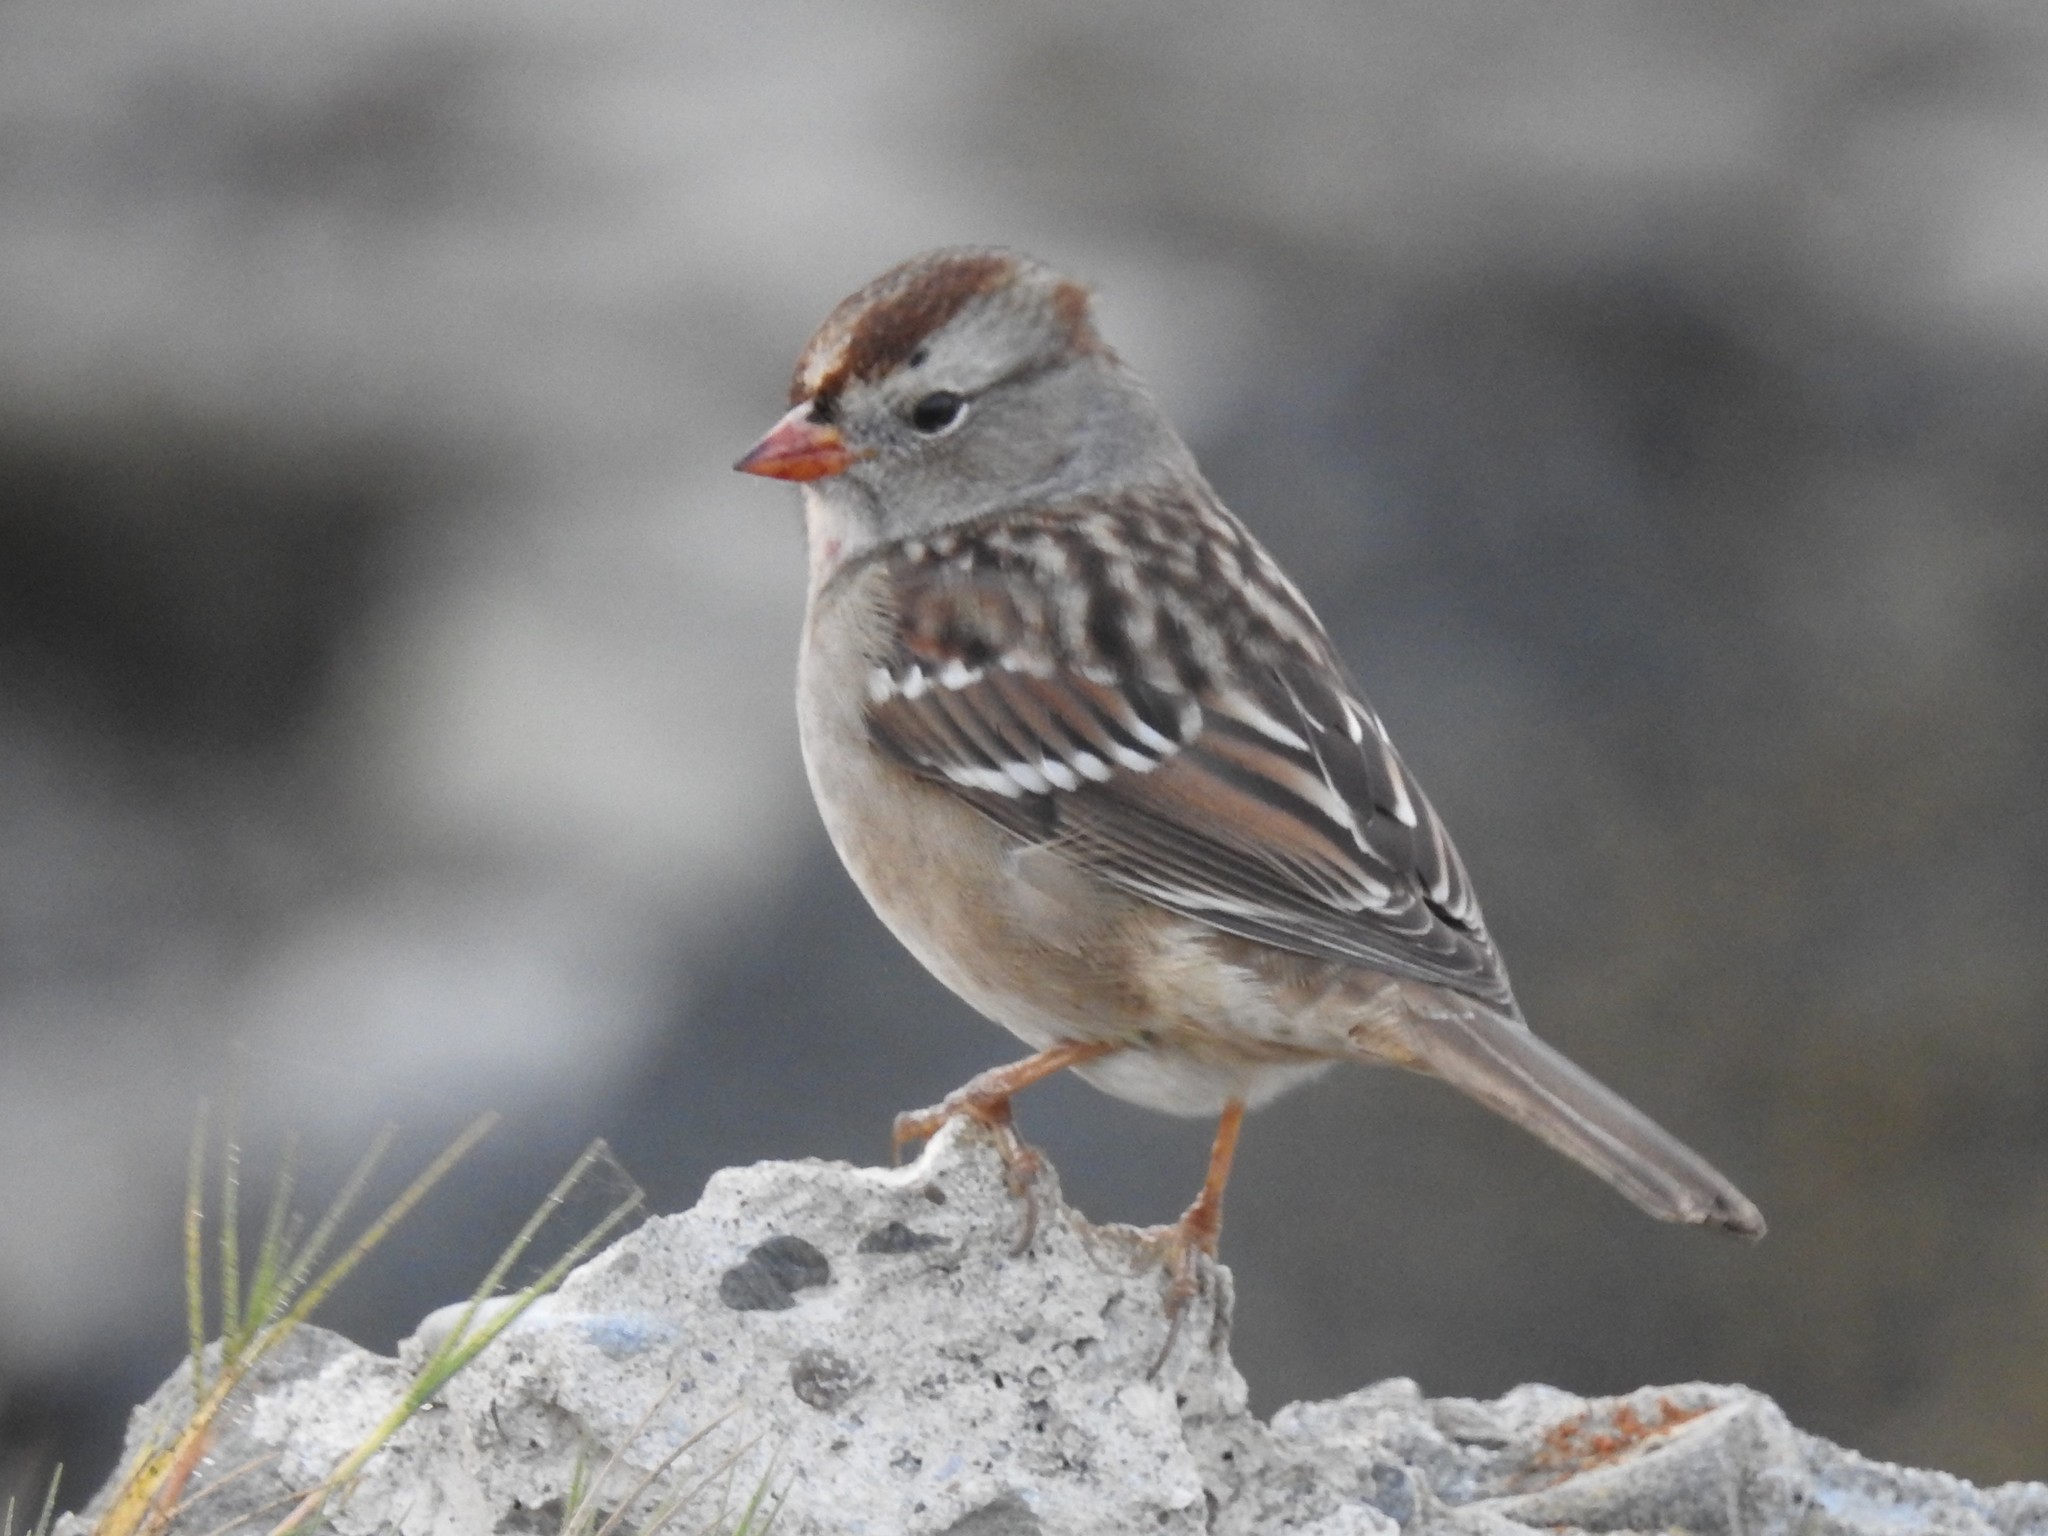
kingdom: Animalia
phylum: Chordata
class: Aves
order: Passeriformes
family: Passerellidae
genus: Zonotrichia
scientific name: Zonotrichia leucophrys
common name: White-crowned sparrow
